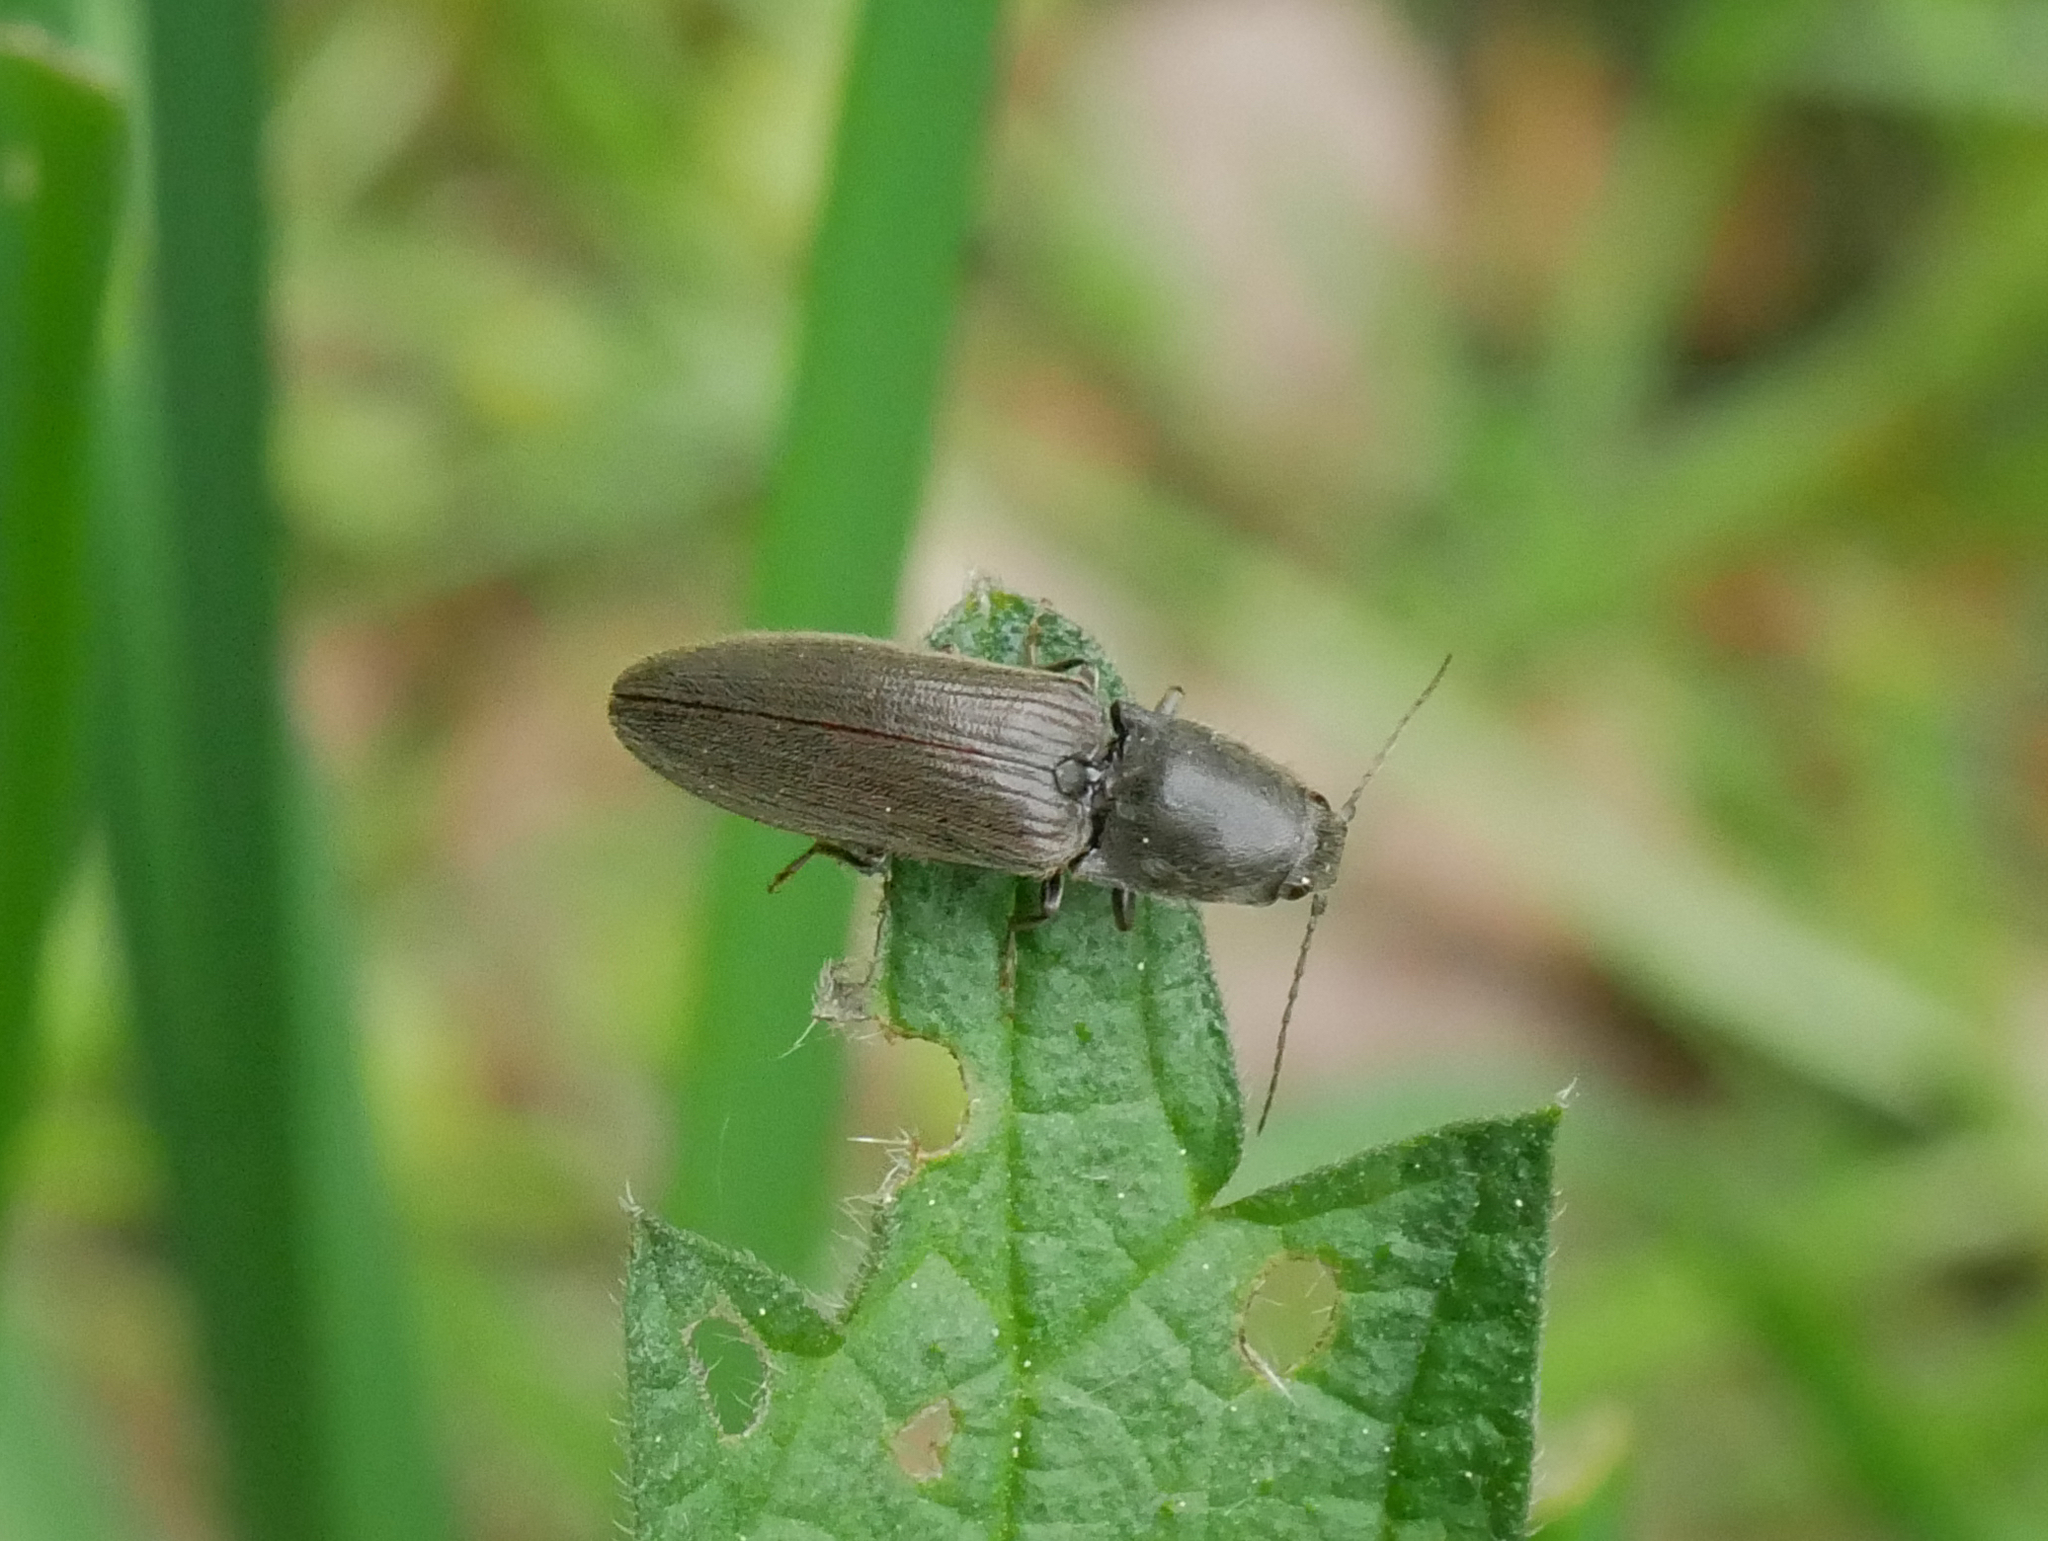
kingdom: Animalia
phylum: Arthropoda
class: Insecta
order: Coleoptera
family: Elateridae
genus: Athous
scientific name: Athous haemorrhoidalis
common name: Red-brown click beetle
